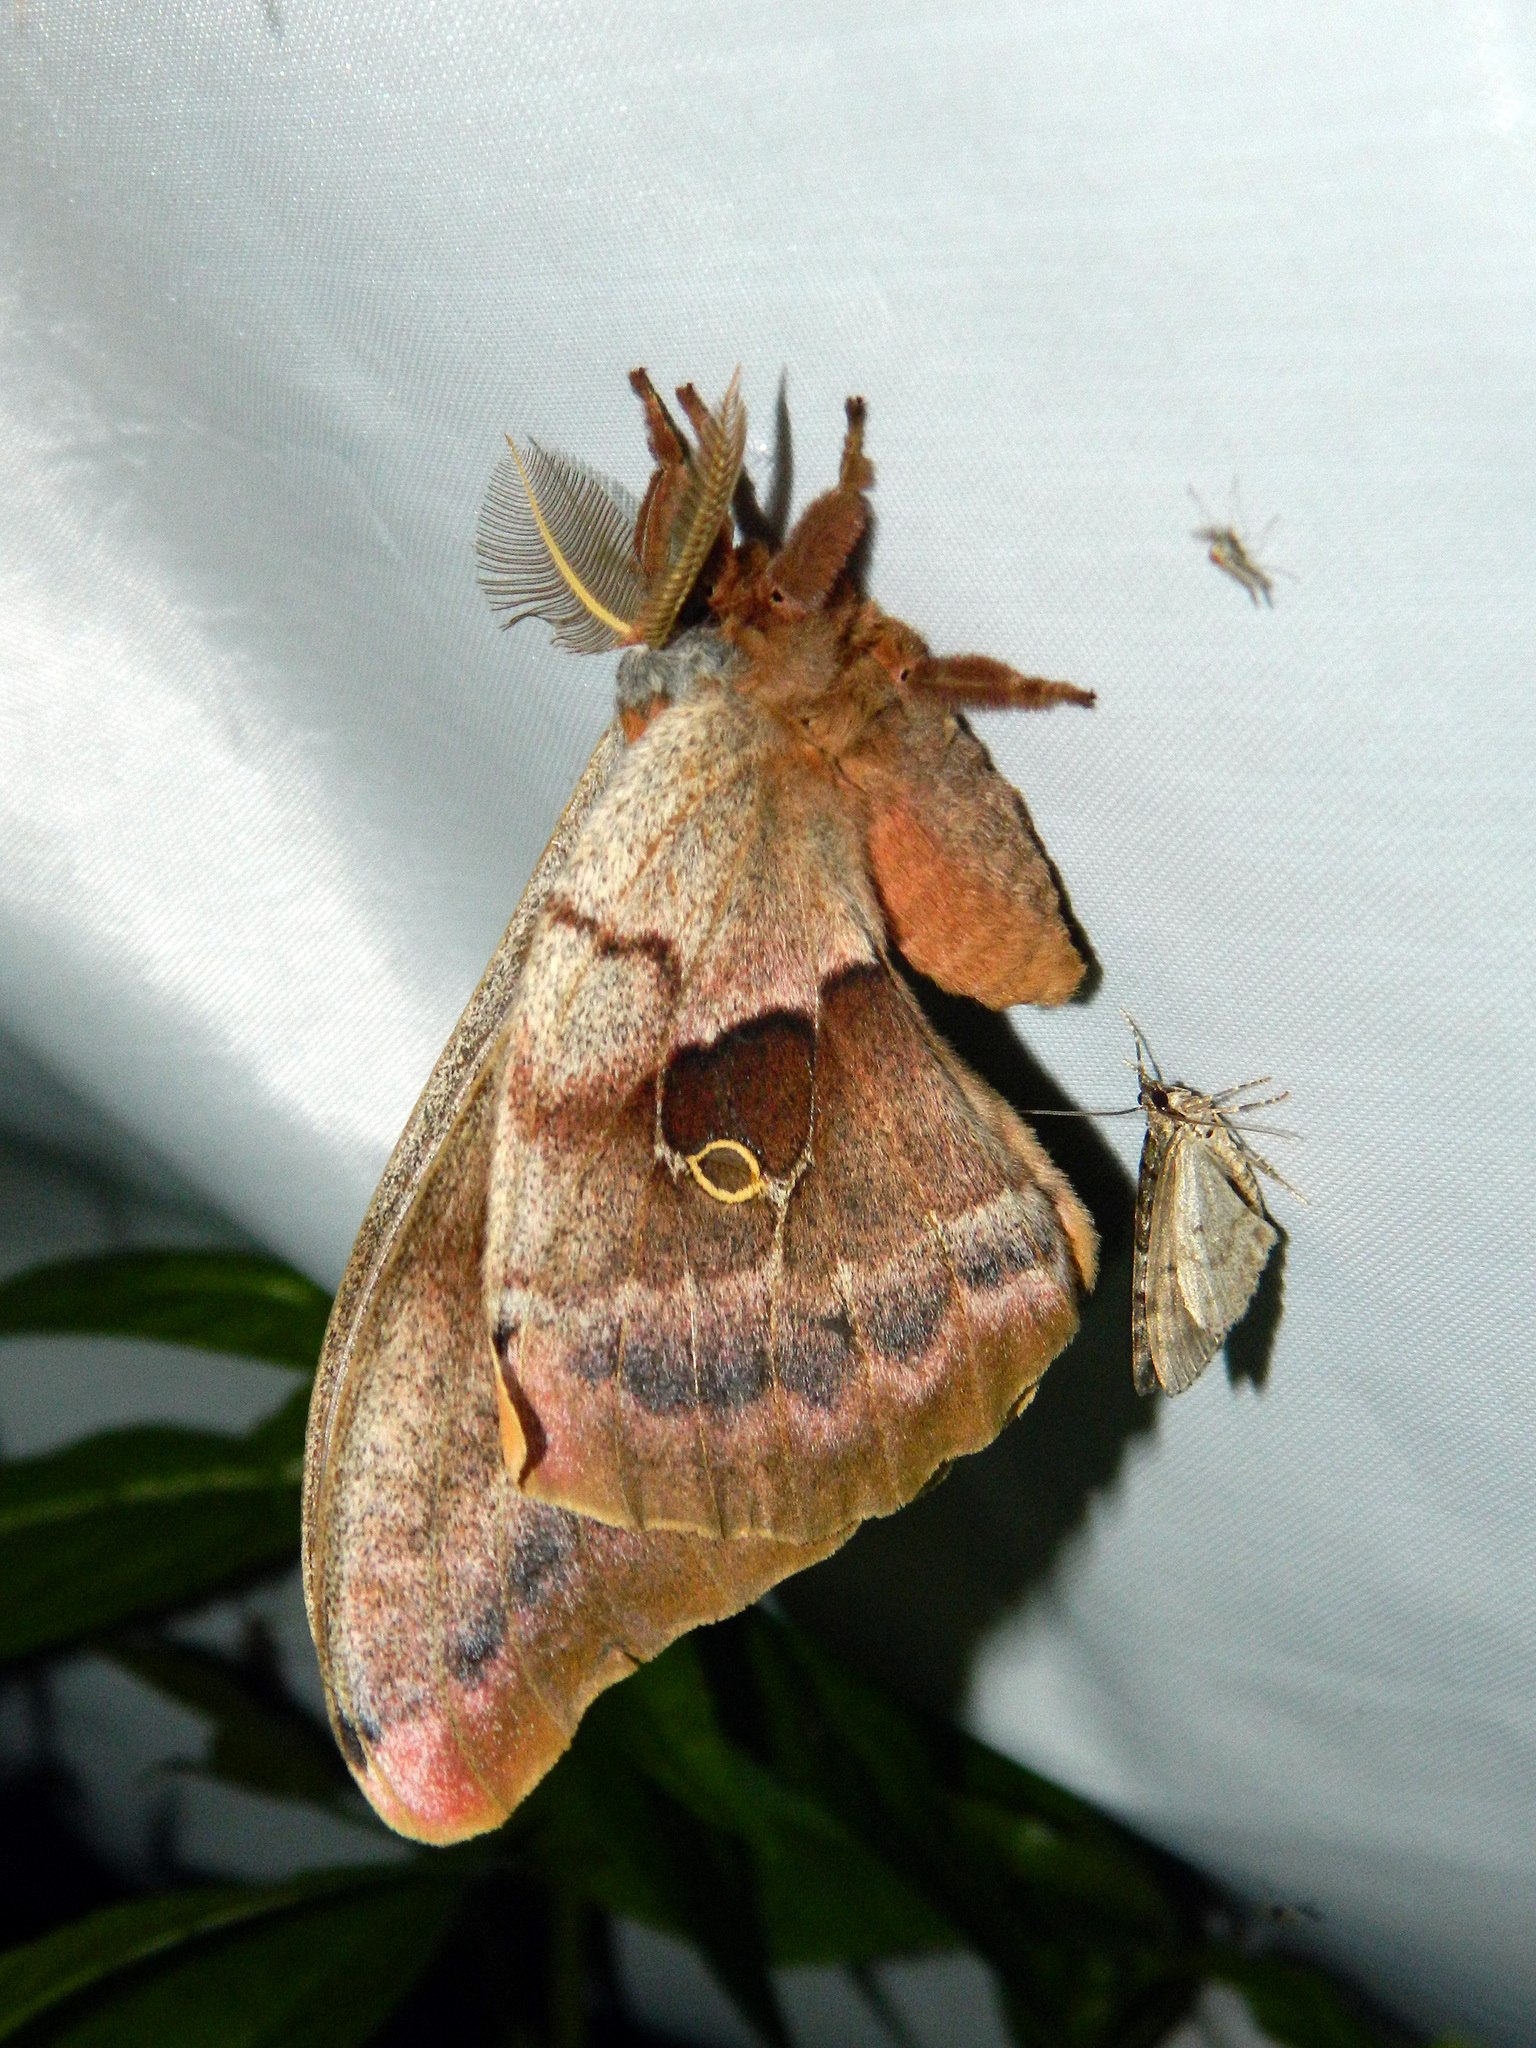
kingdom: Animalia
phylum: Arthropoda
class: Insecta
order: Lepidoptera
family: Saturniidae
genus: Antheraea
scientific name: Antheraea polyphemus
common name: Polyphemus moth
